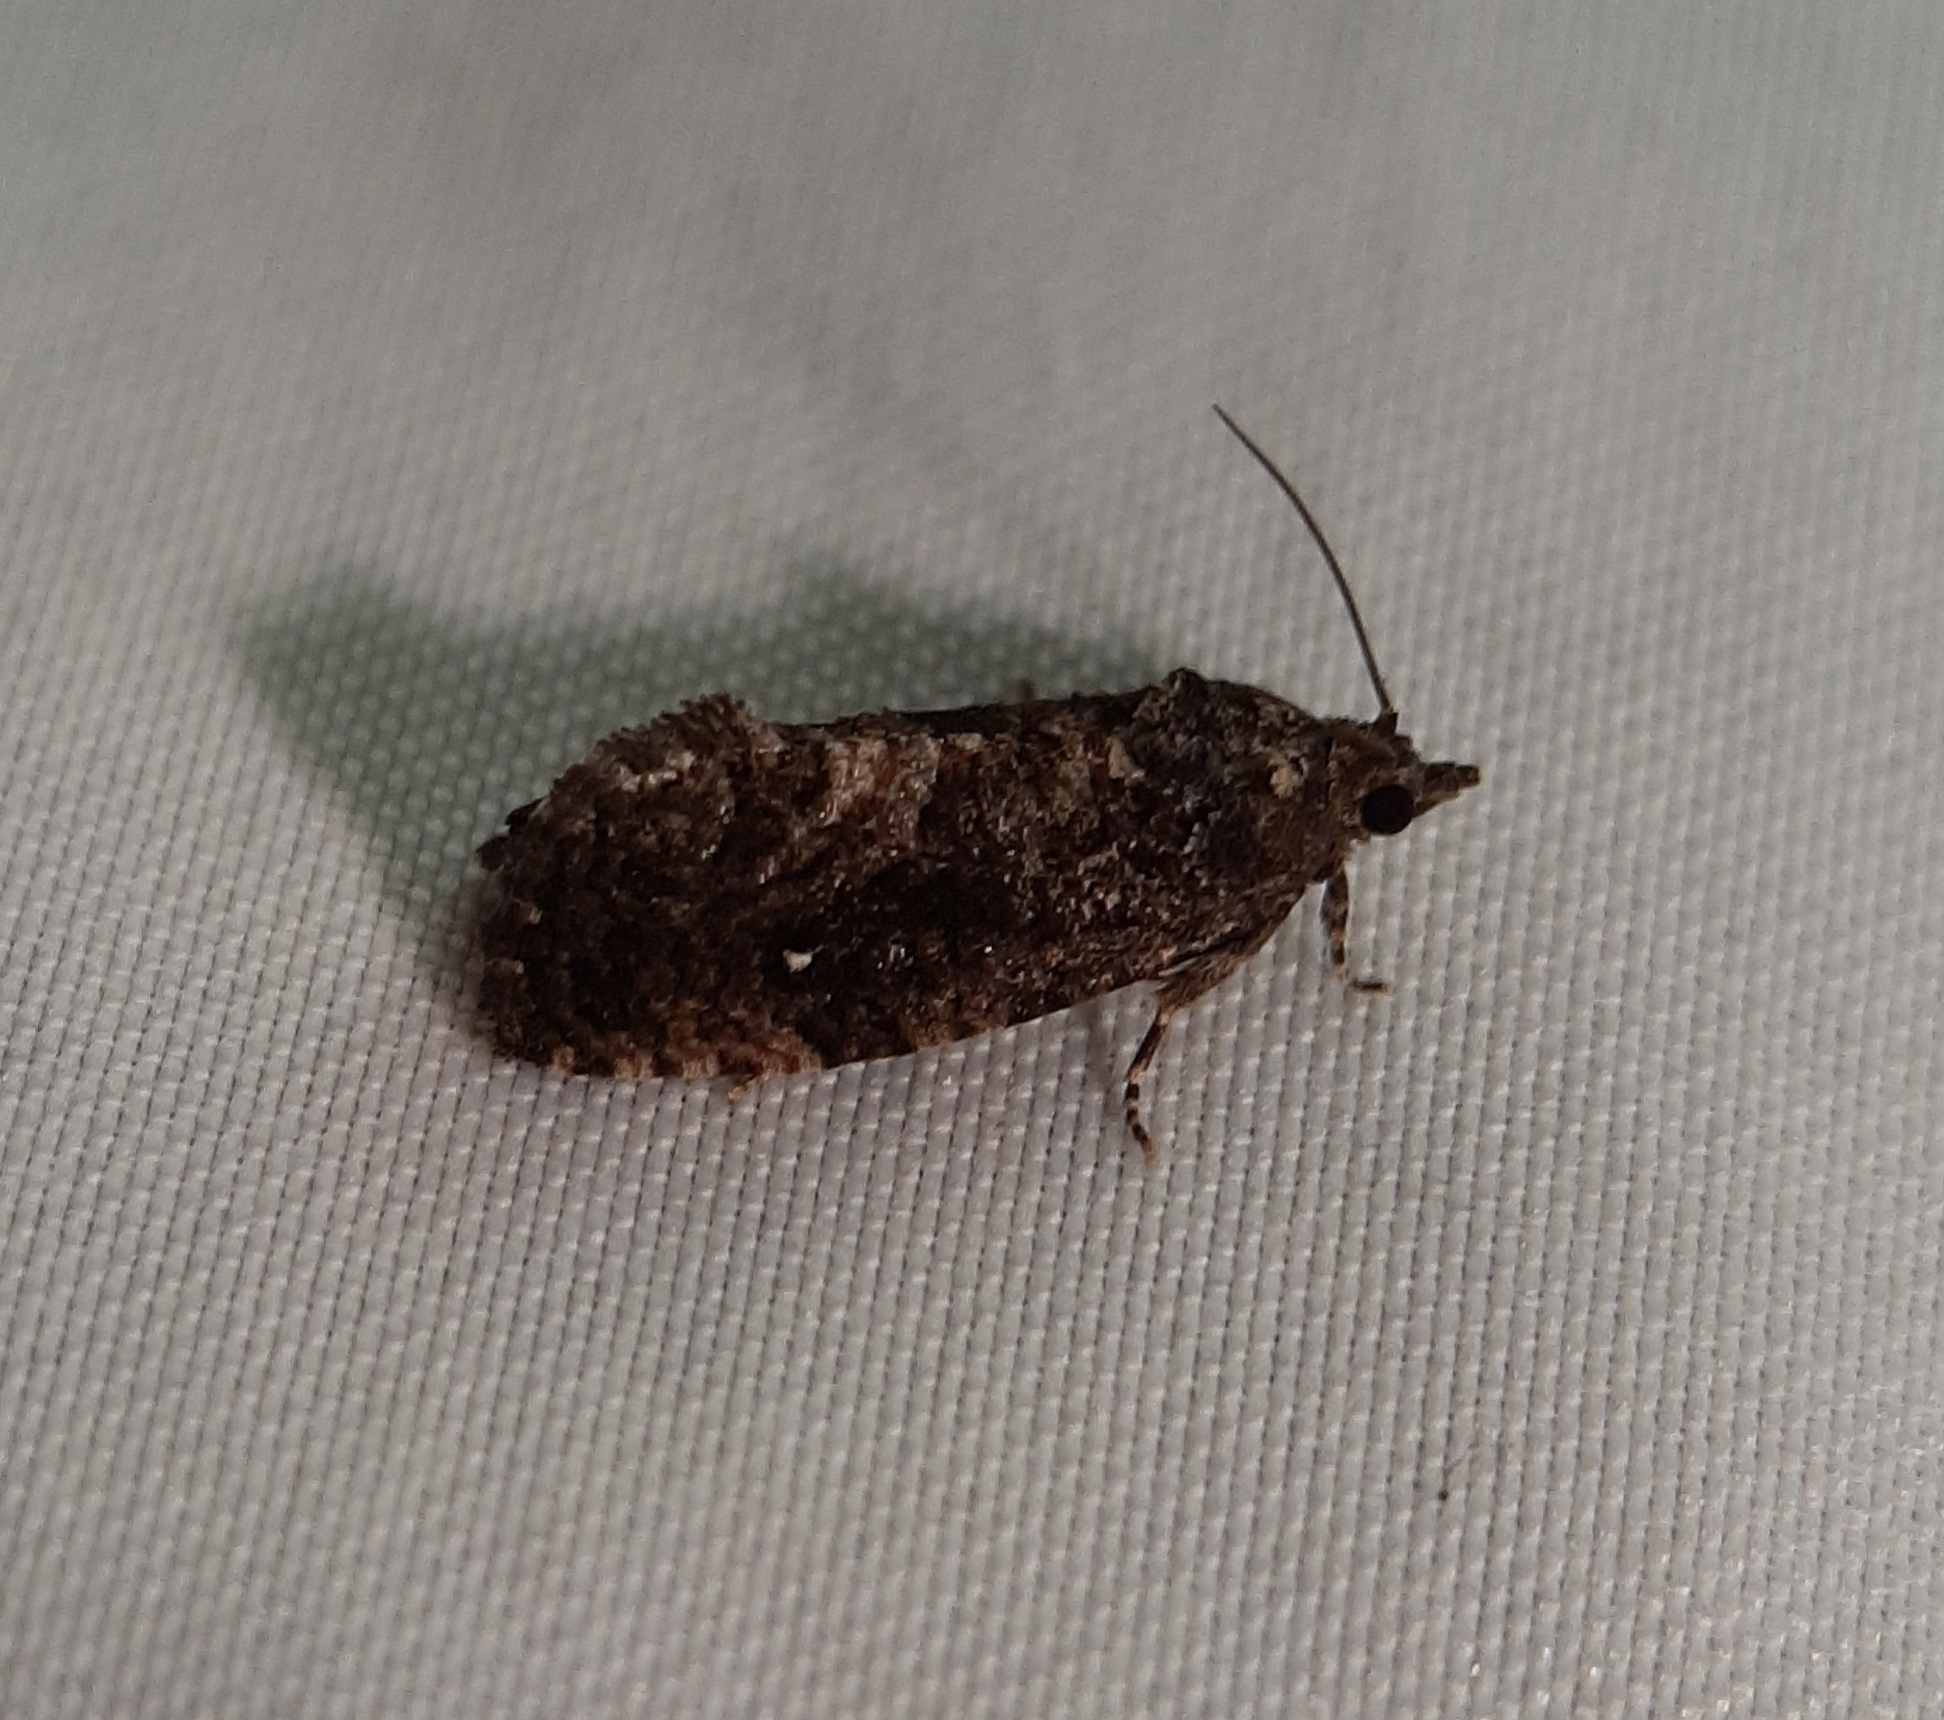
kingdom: Animalia
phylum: Arthropoda
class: Insecta
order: Lepidoptera
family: Tortricidae
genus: Gymnandrosoma
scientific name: Gymnandrosoma punctidiscanum
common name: Dotted ecdytolopha moth
